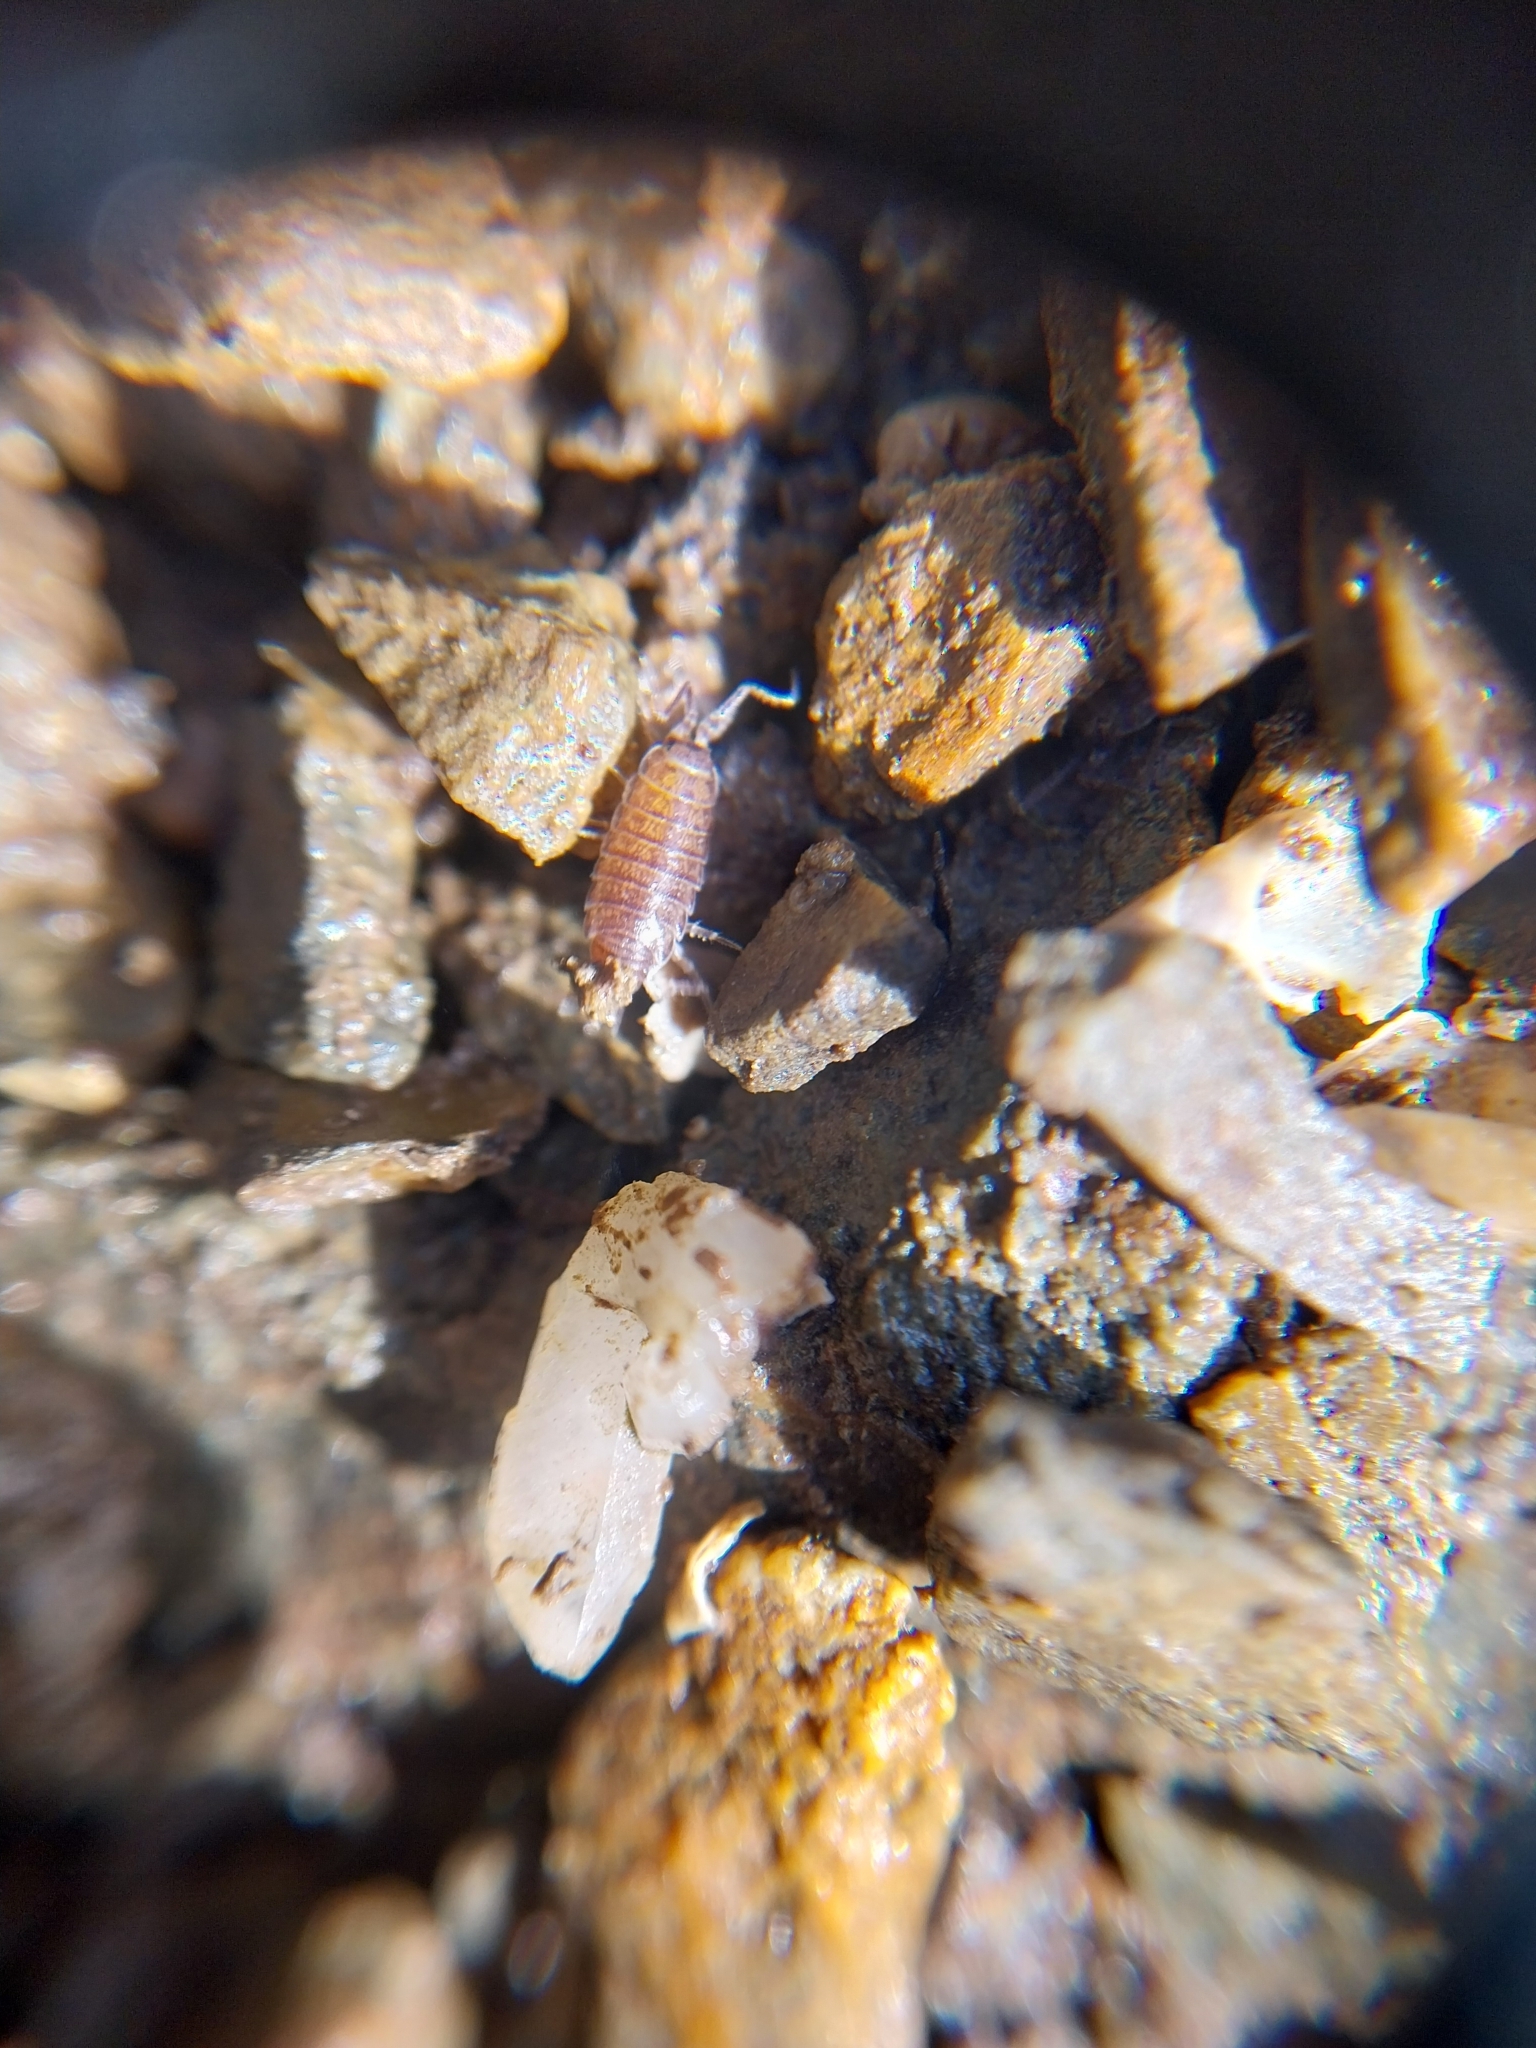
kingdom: Animalia
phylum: Arthropoda
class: Malacostraca
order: Isopoda
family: Halophilosciidae
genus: Halophiloscia
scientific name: Halophiloscia couchii
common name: Isopod
